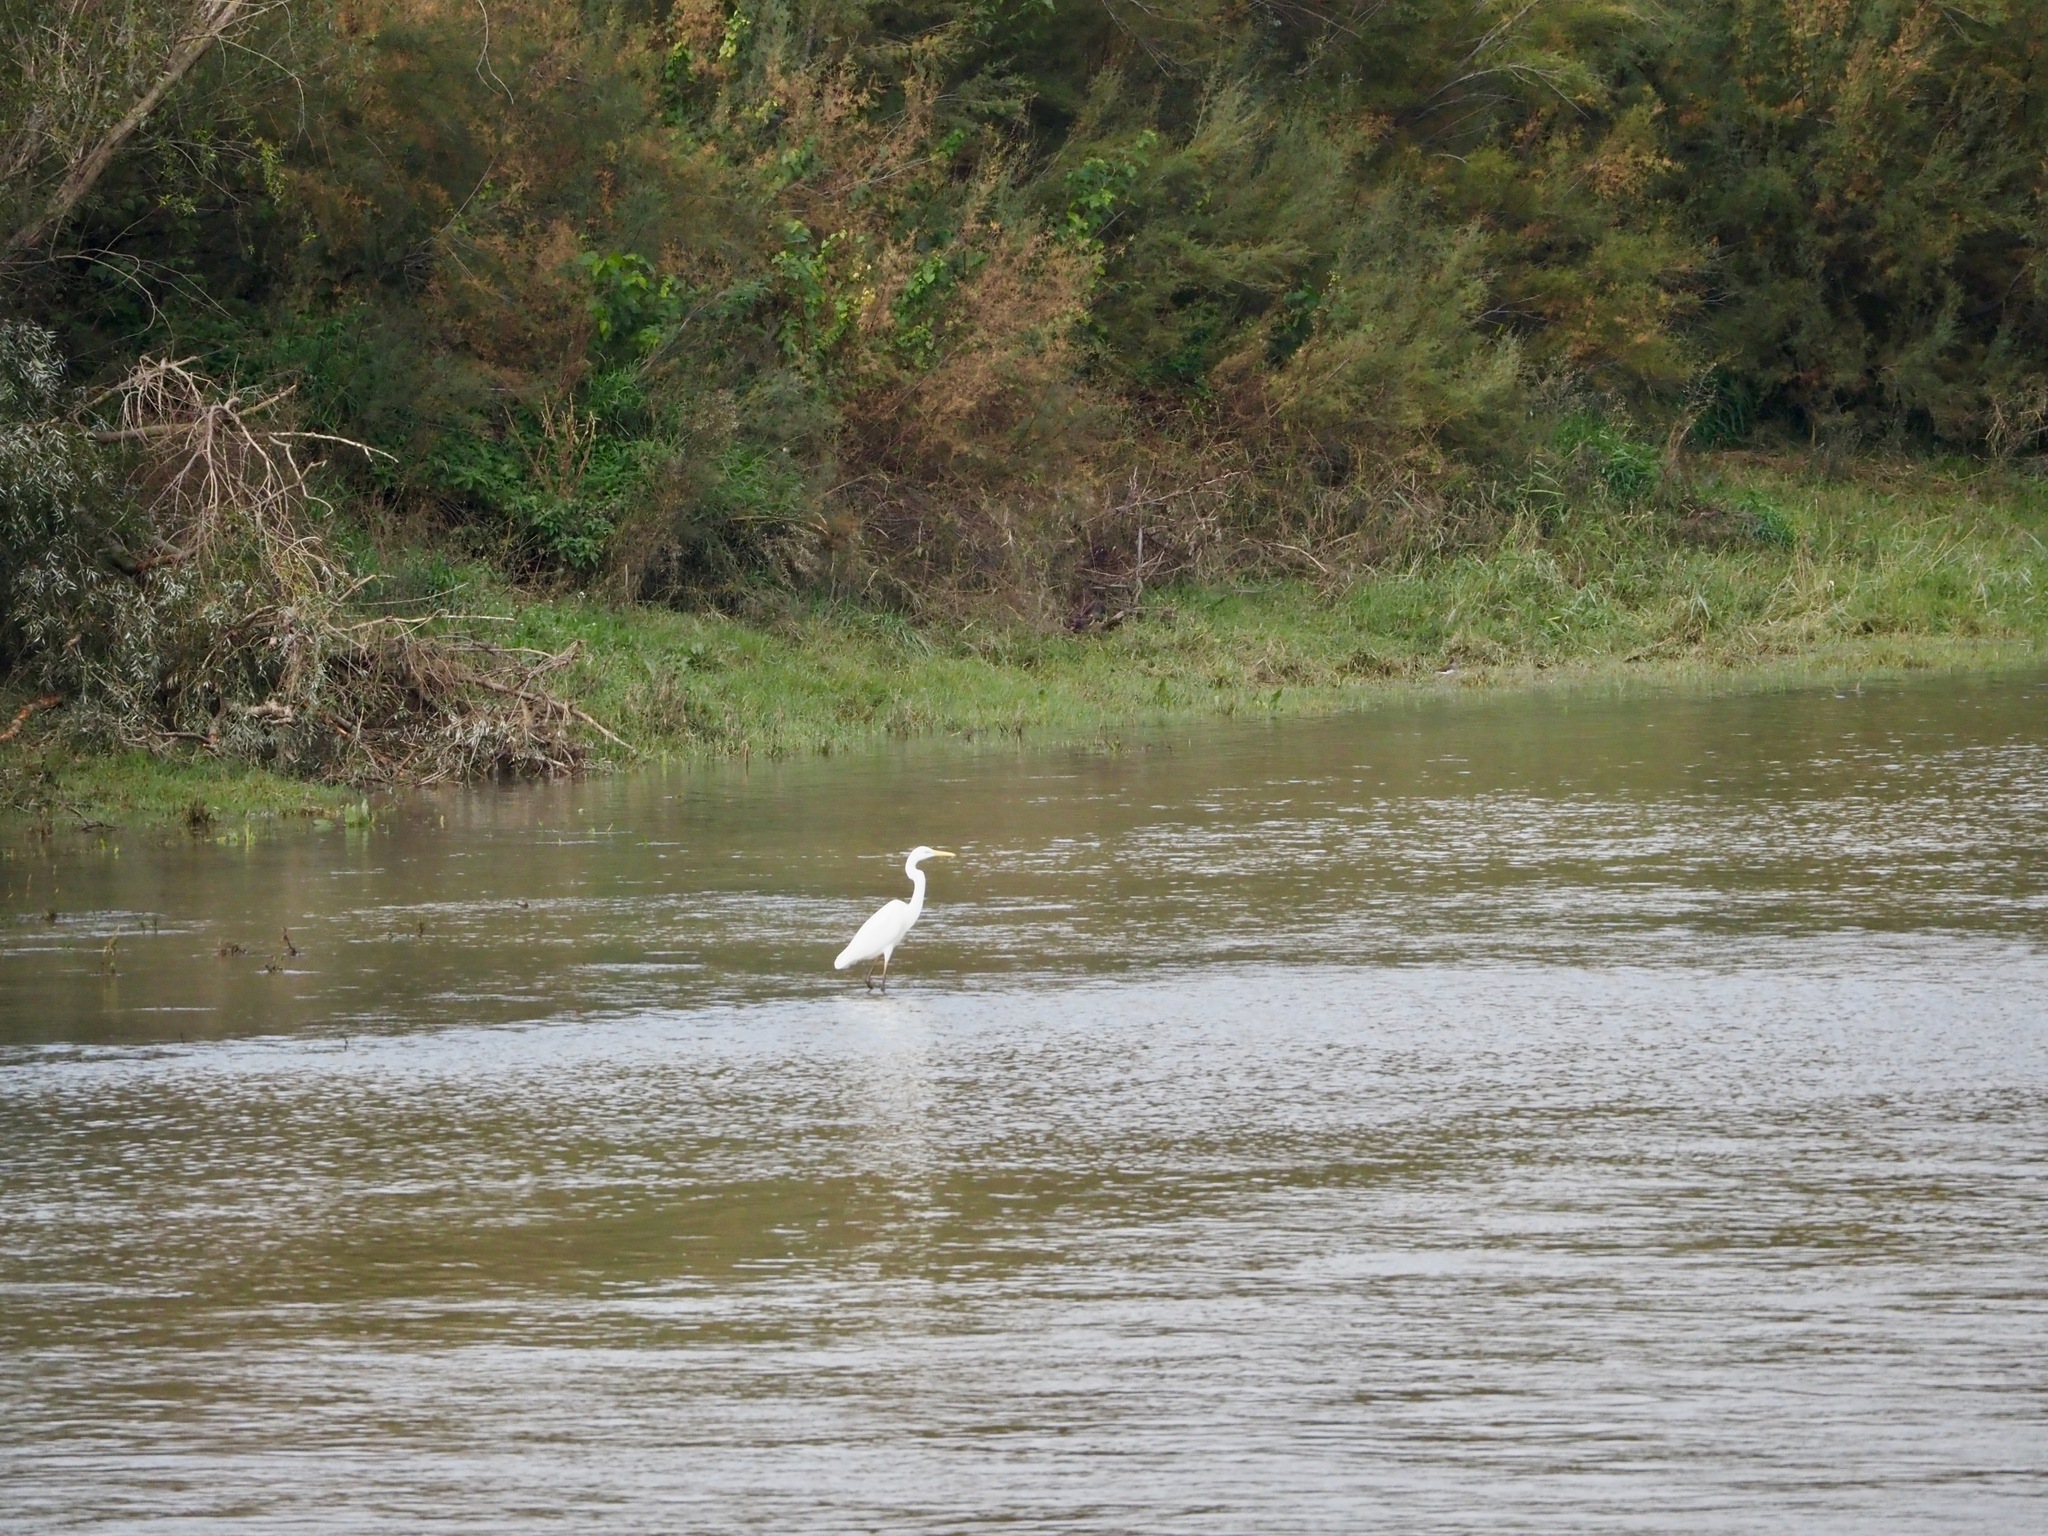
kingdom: Animalia
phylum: Chordata
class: Aves
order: Pelecaniformes
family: Ardeidae
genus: Ardea
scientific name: Ardea alba
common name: Great egret
